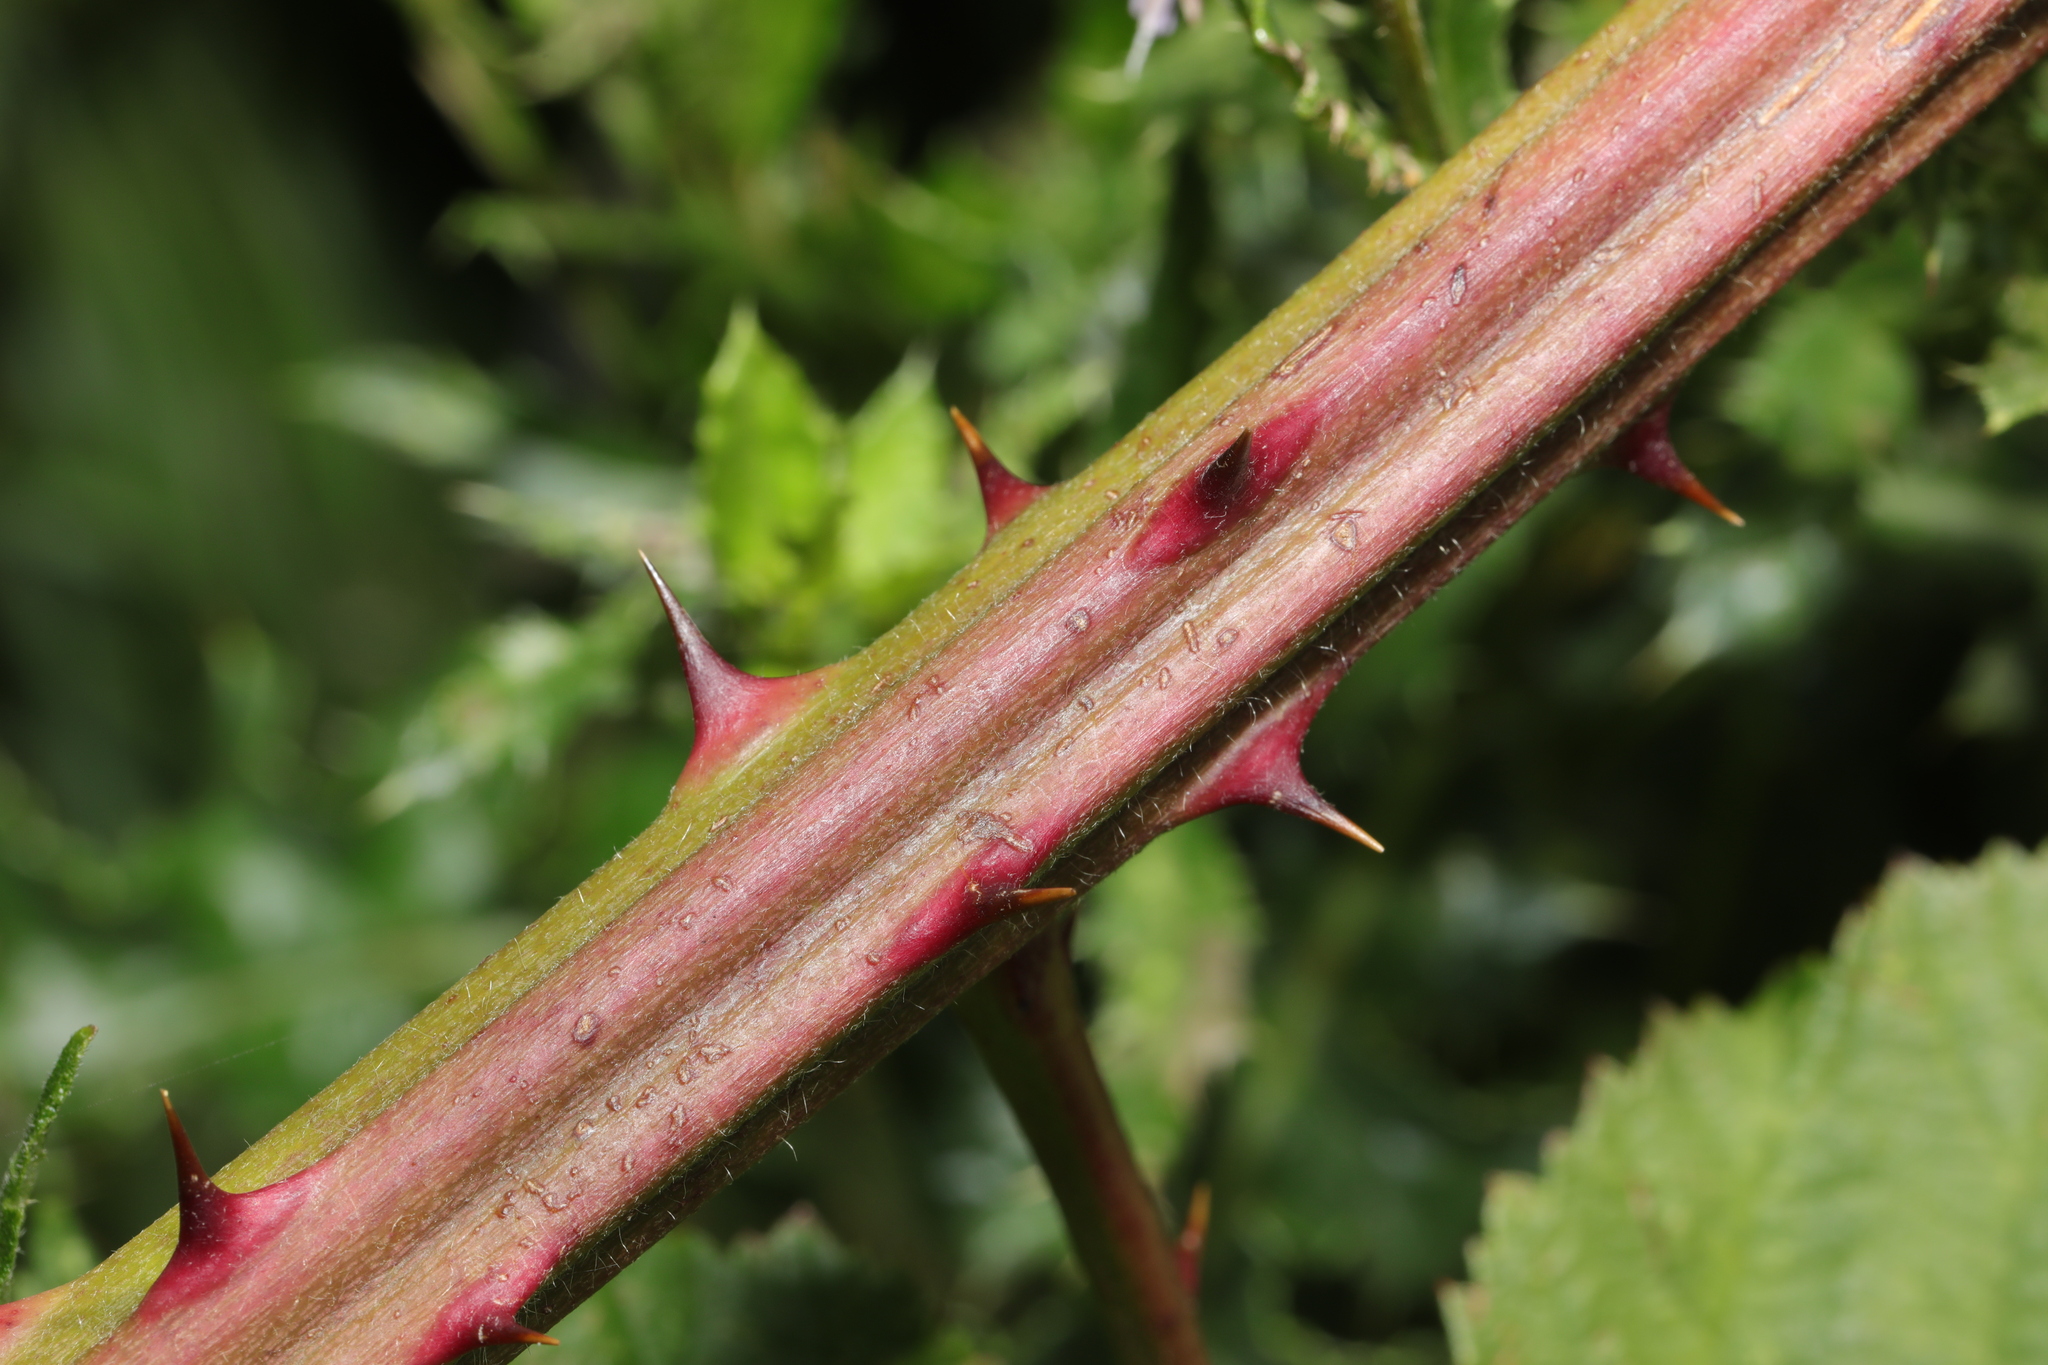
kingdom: Plantae
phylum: Tracheophyta
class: Magnoliopsida
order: Rosales
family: Rosaceae
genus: Rubus
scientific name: Rubus armeniacus
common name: Himalayan blackberry
